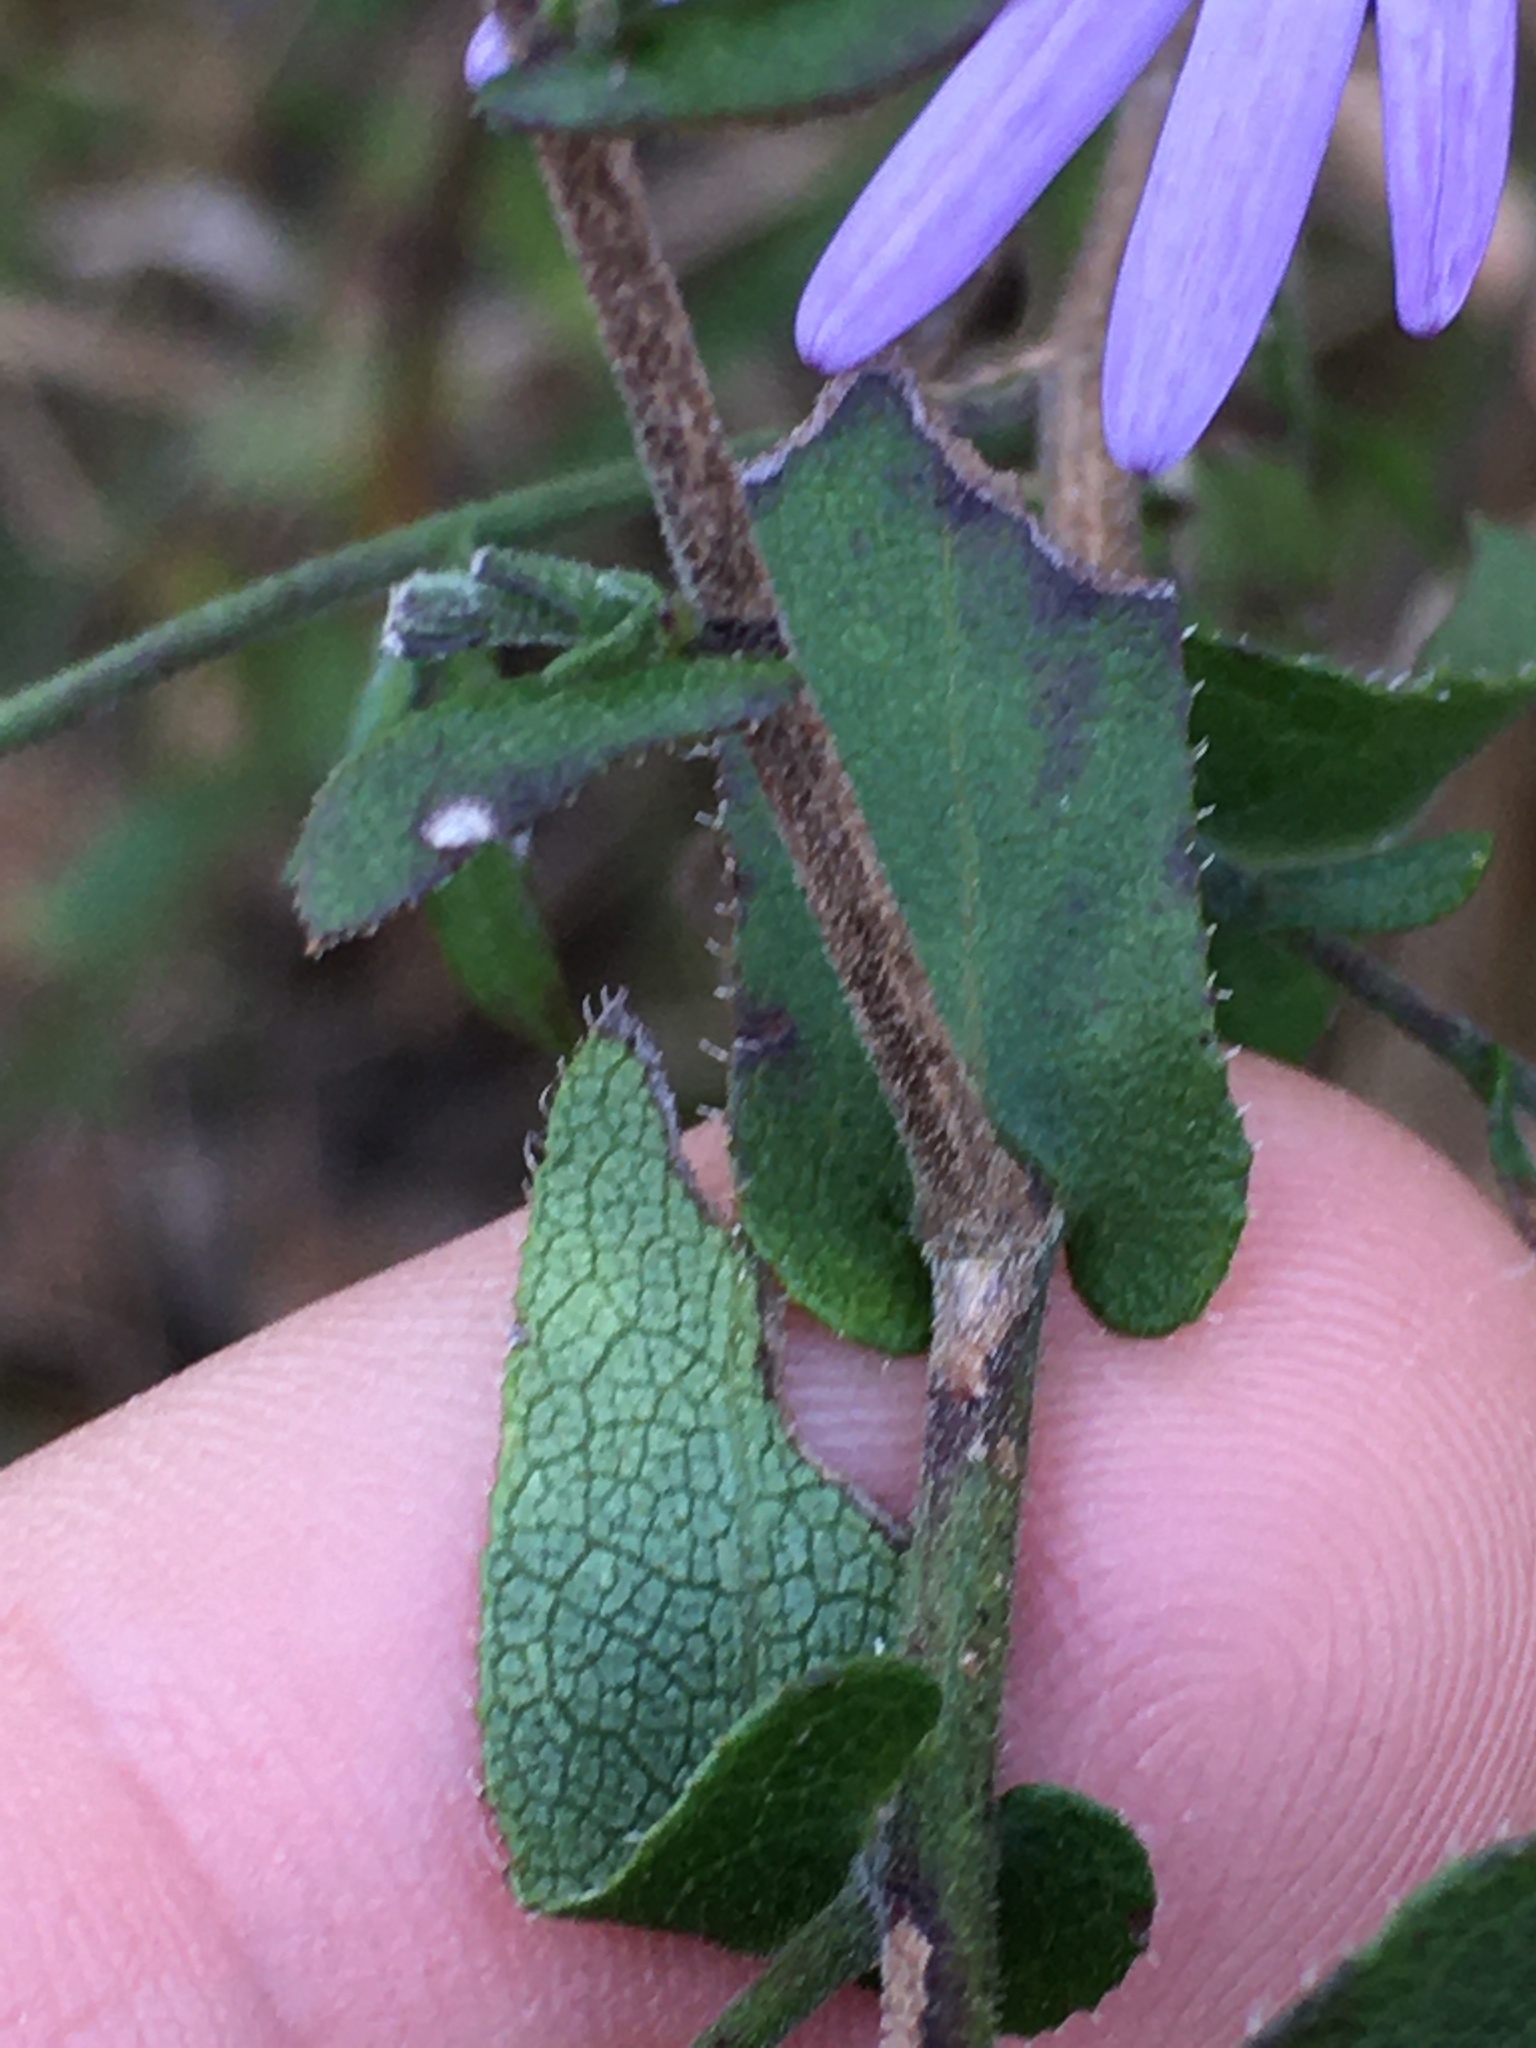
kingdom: Plantae
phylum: Tracheophyta
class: Magnoliopsida
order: Asterales
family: Asteraceae
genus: Symphyotrichum
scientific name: Symphyotrichum patens
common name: Late purple aster
